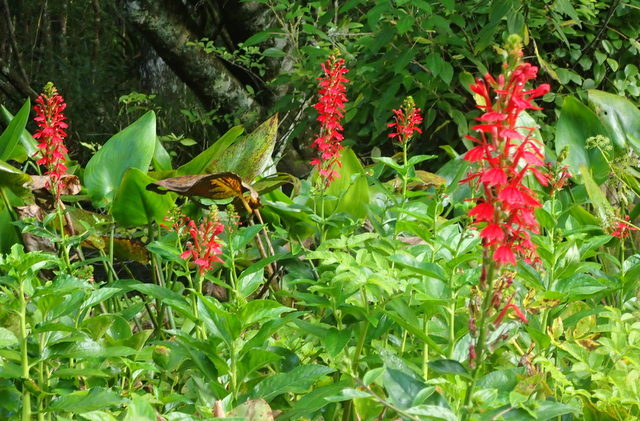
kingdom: Plantae
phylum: Tracheophyta
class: Magnoliopsida
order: Asterales
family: Campanulaceae
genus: Lobelia
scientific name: Lobelia cardinalis
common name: Cardinal flower
